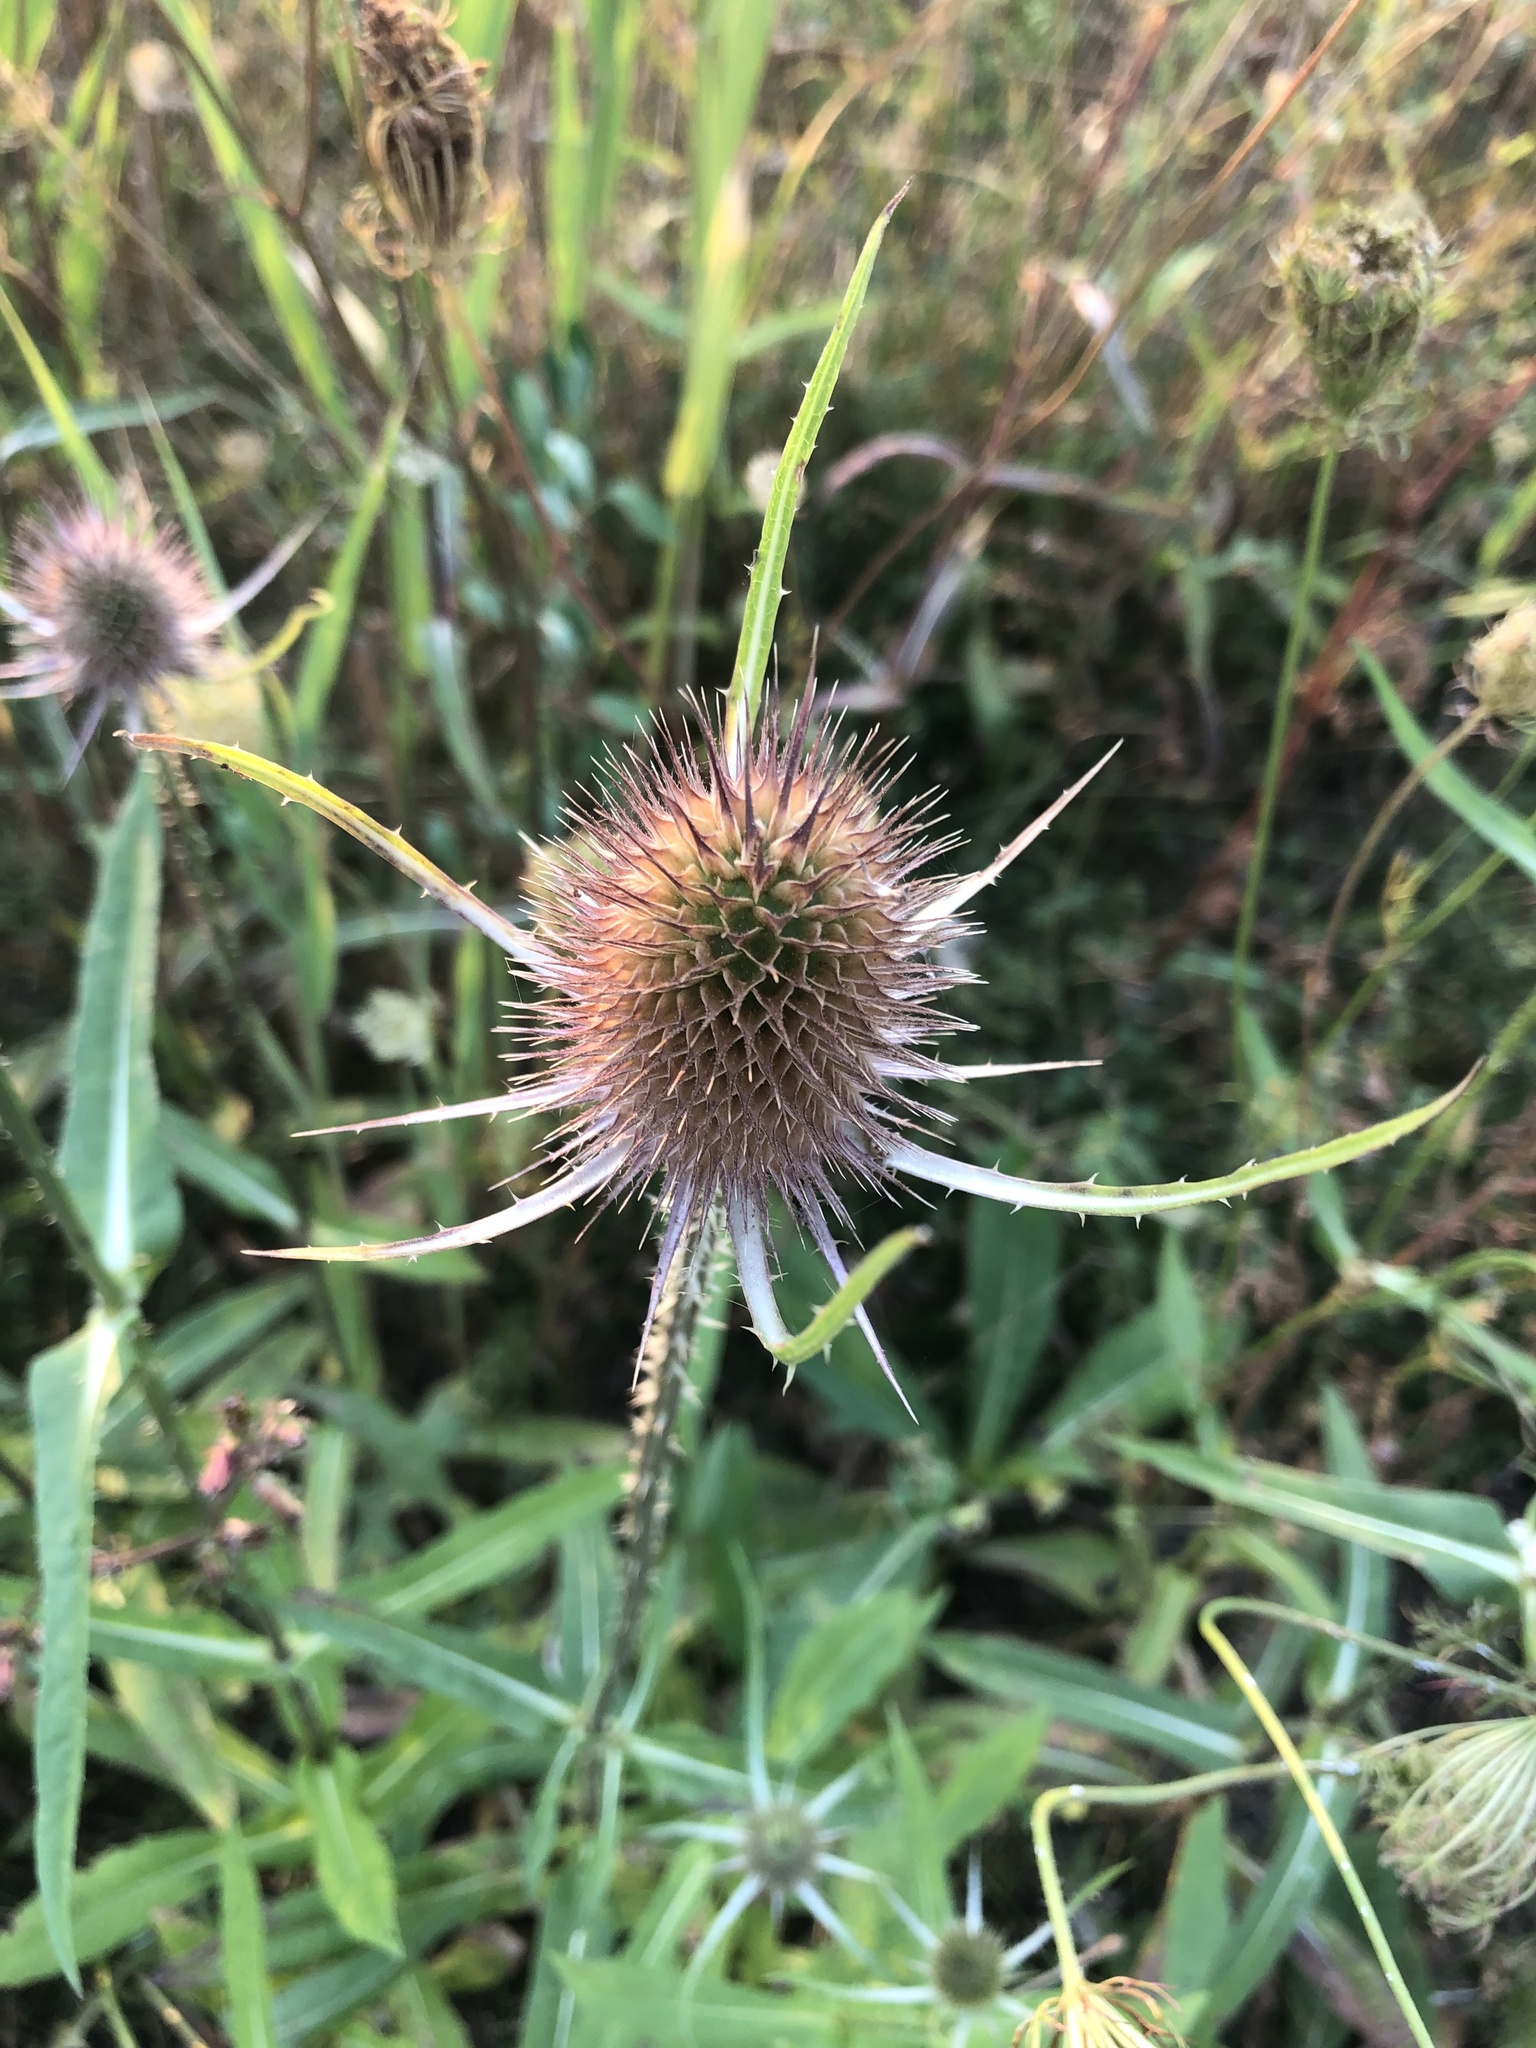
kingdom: Plantae
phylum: Tracheophyta
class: Magnoliopsida
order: Dipsacales
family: Caprifoliaceae
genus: Dipsacus
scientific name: Dipsacus fullonum
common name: Teasel
